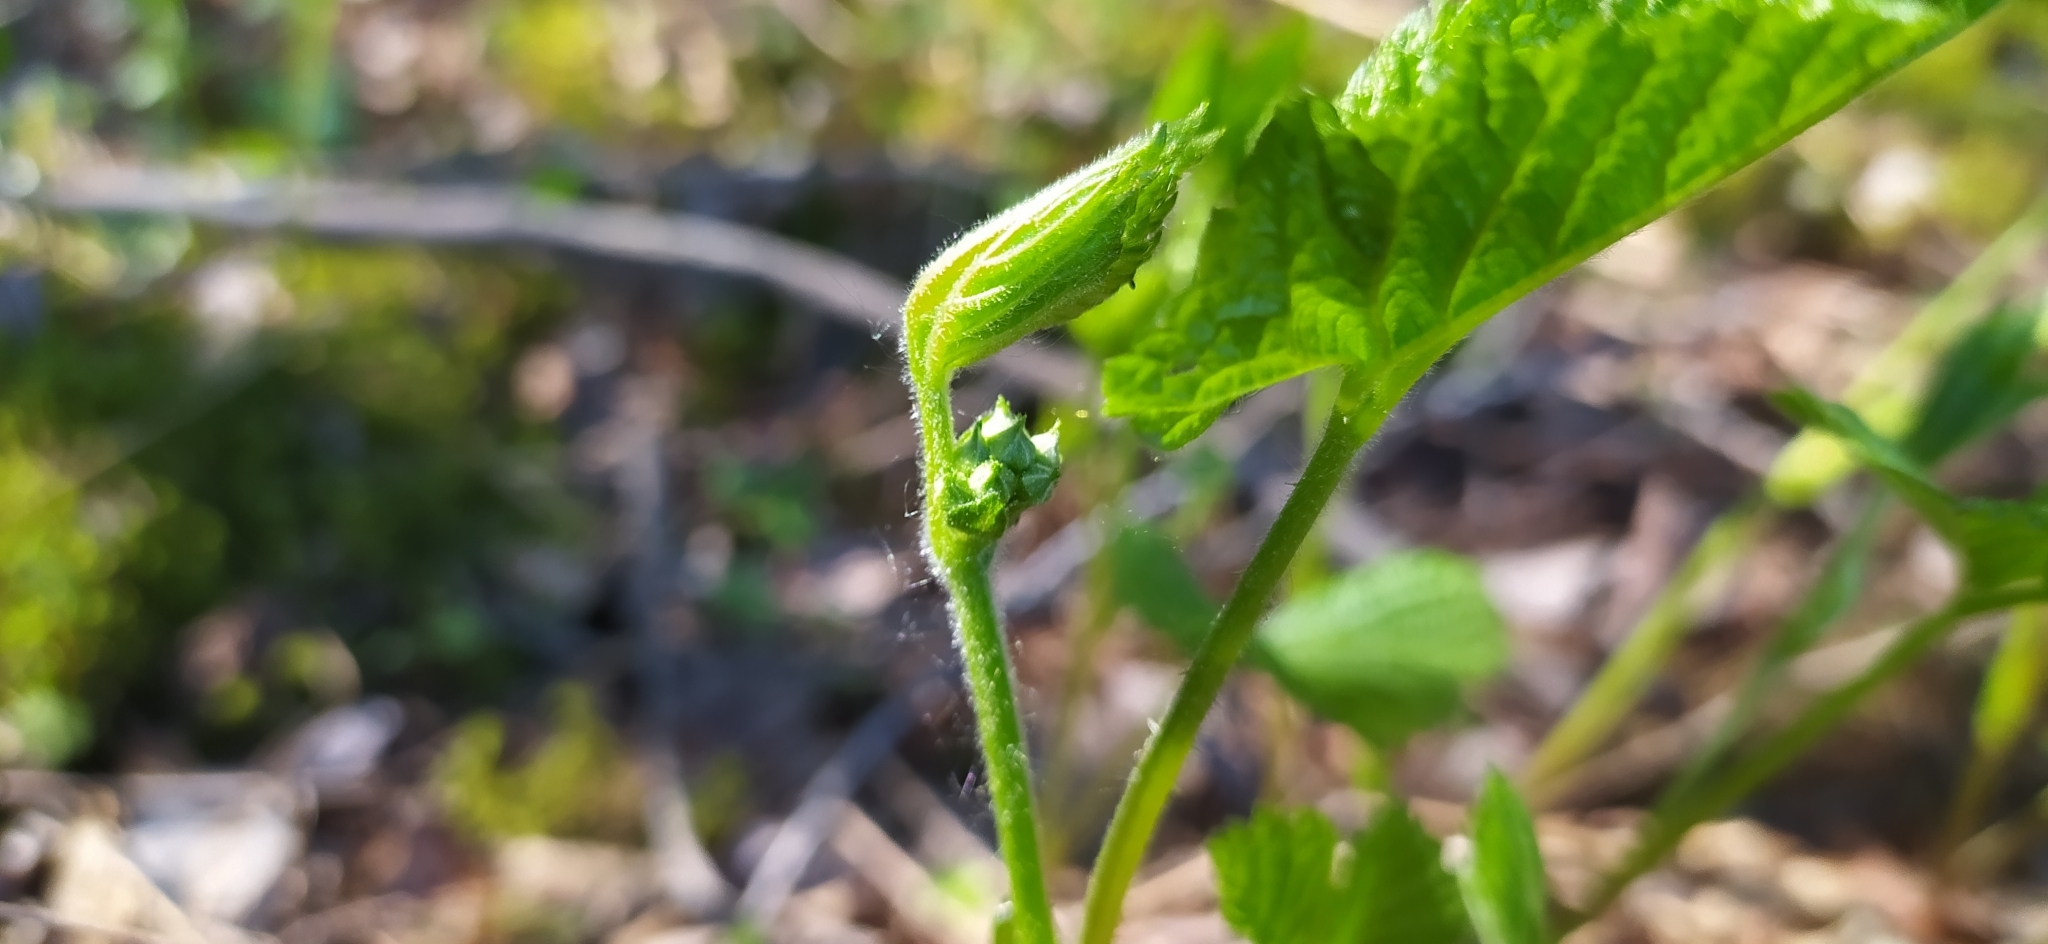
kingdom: Plantae
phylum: Tracheophyta
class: Magnoliopsida
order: Rosales
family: Rosaceae
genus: Rubus
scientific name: Rubus saxatilis
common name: Stone bramble
